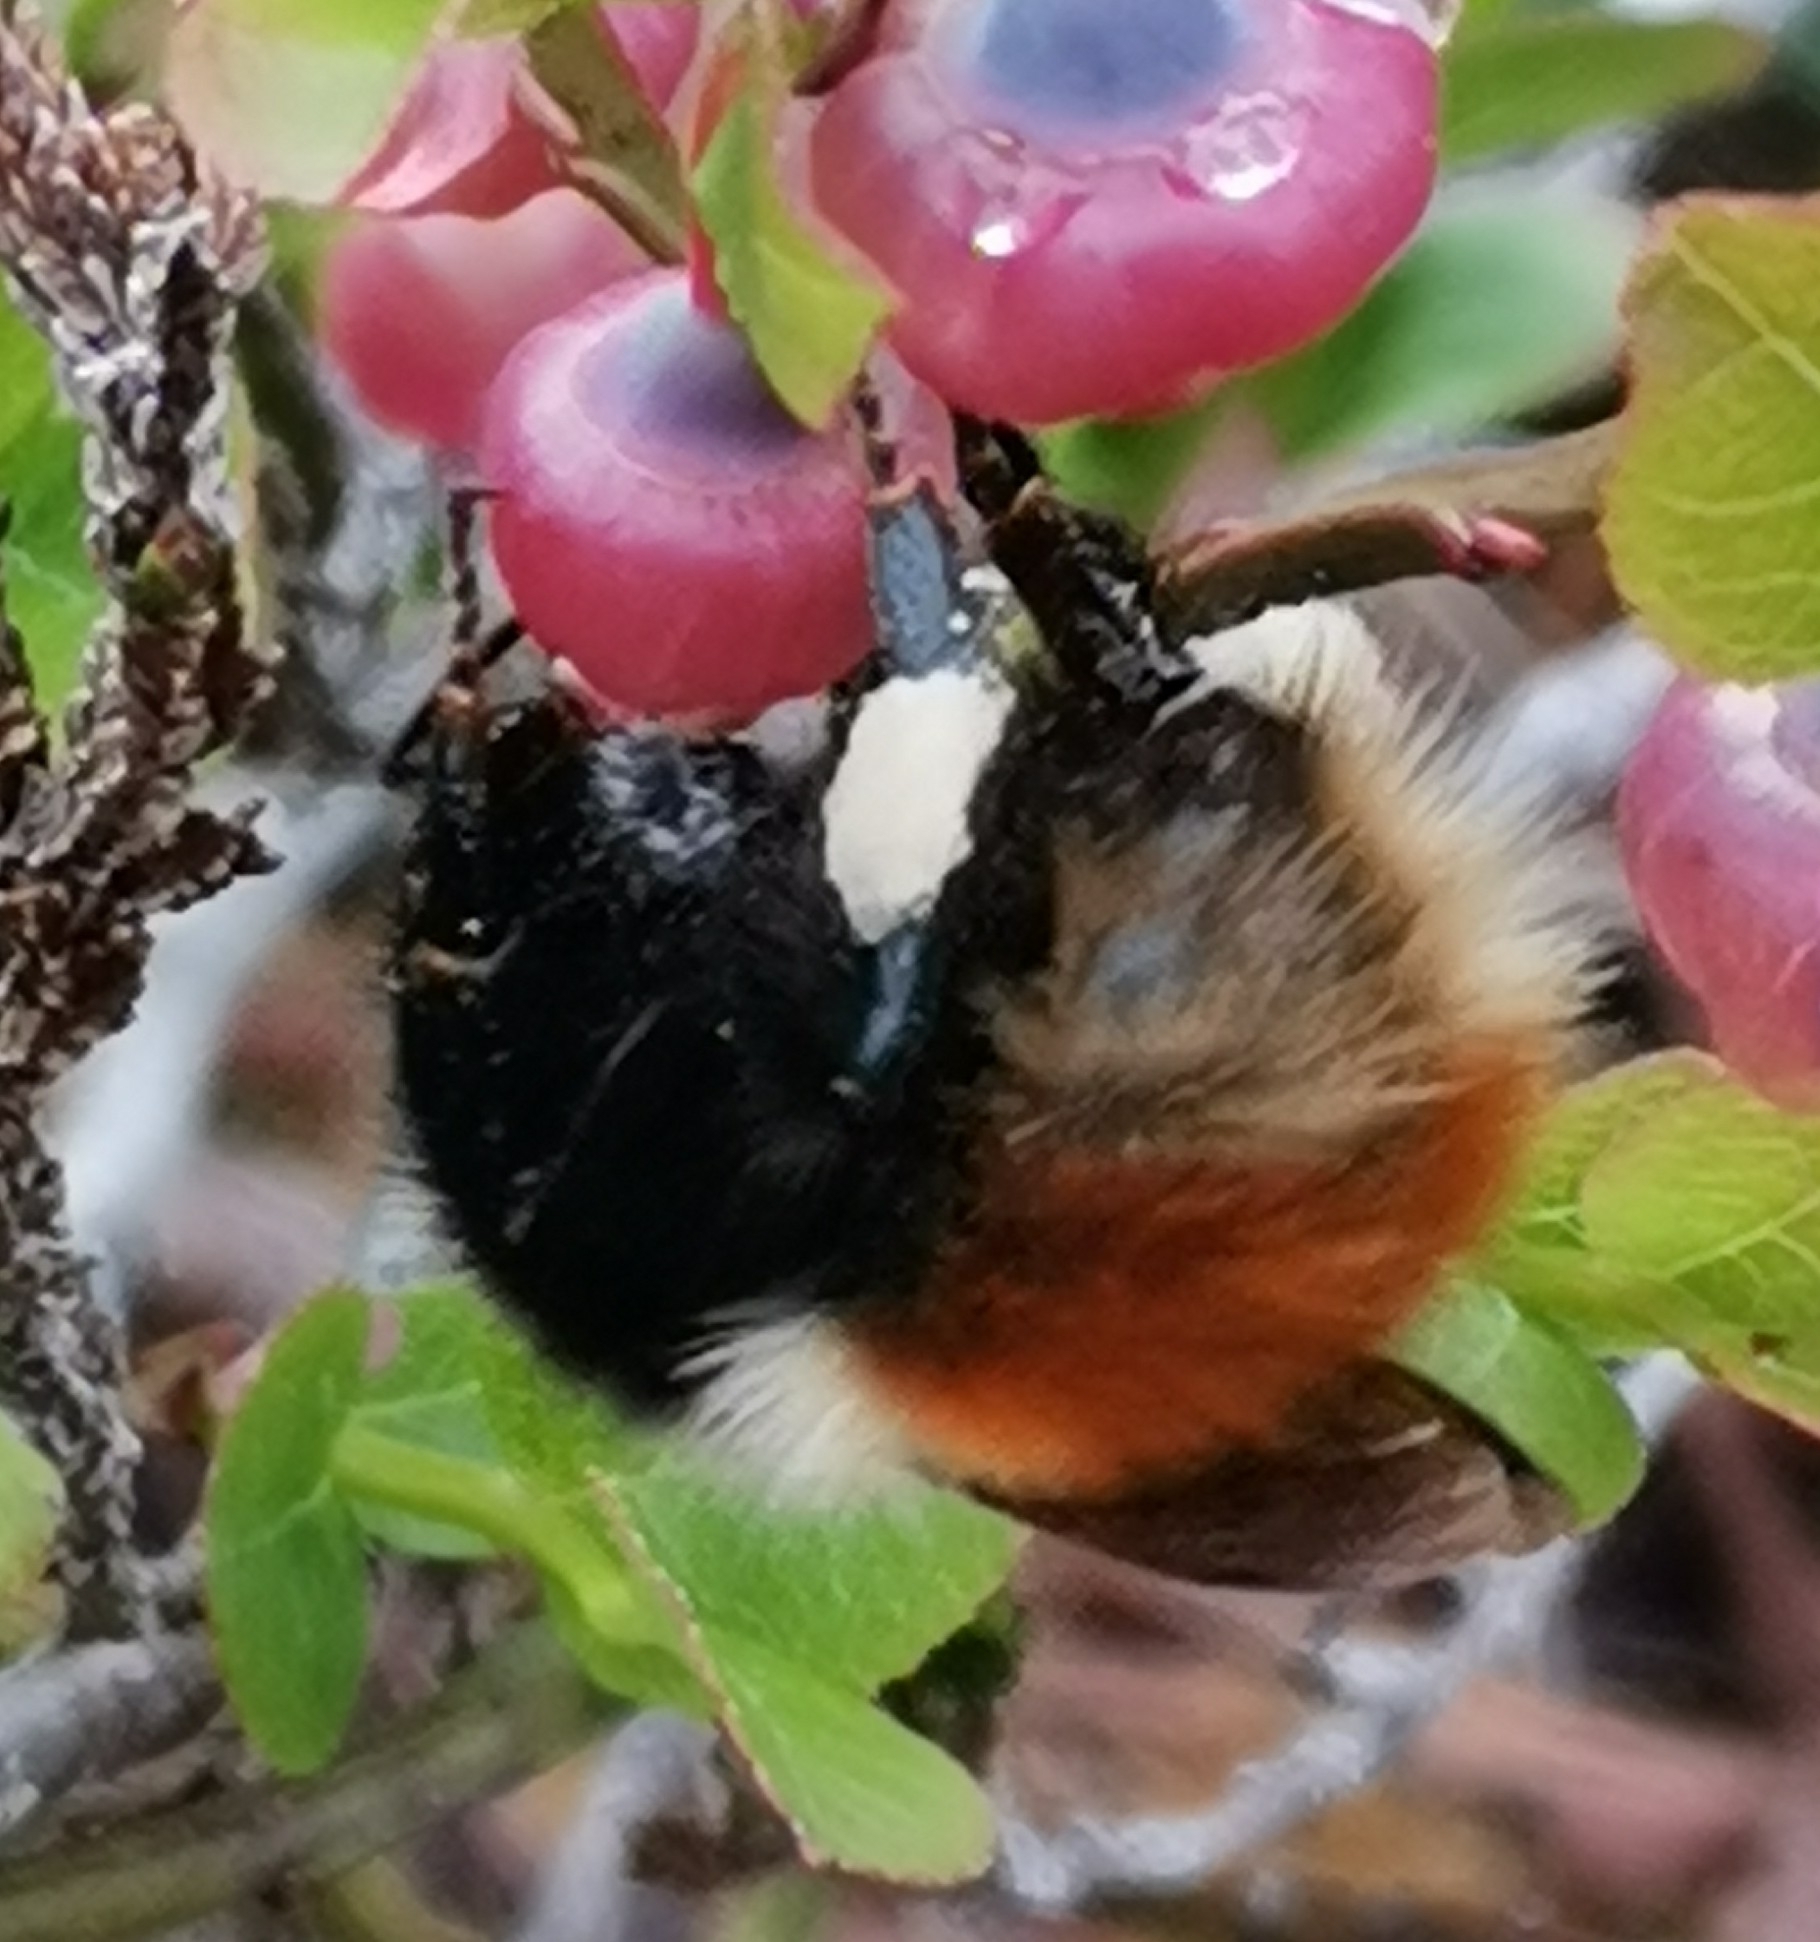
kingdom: Animalia
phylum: Arthropoda
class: Insecta
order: Hymenoptera
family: Apidae
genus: Bombus
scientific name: Bombus lapponicus
